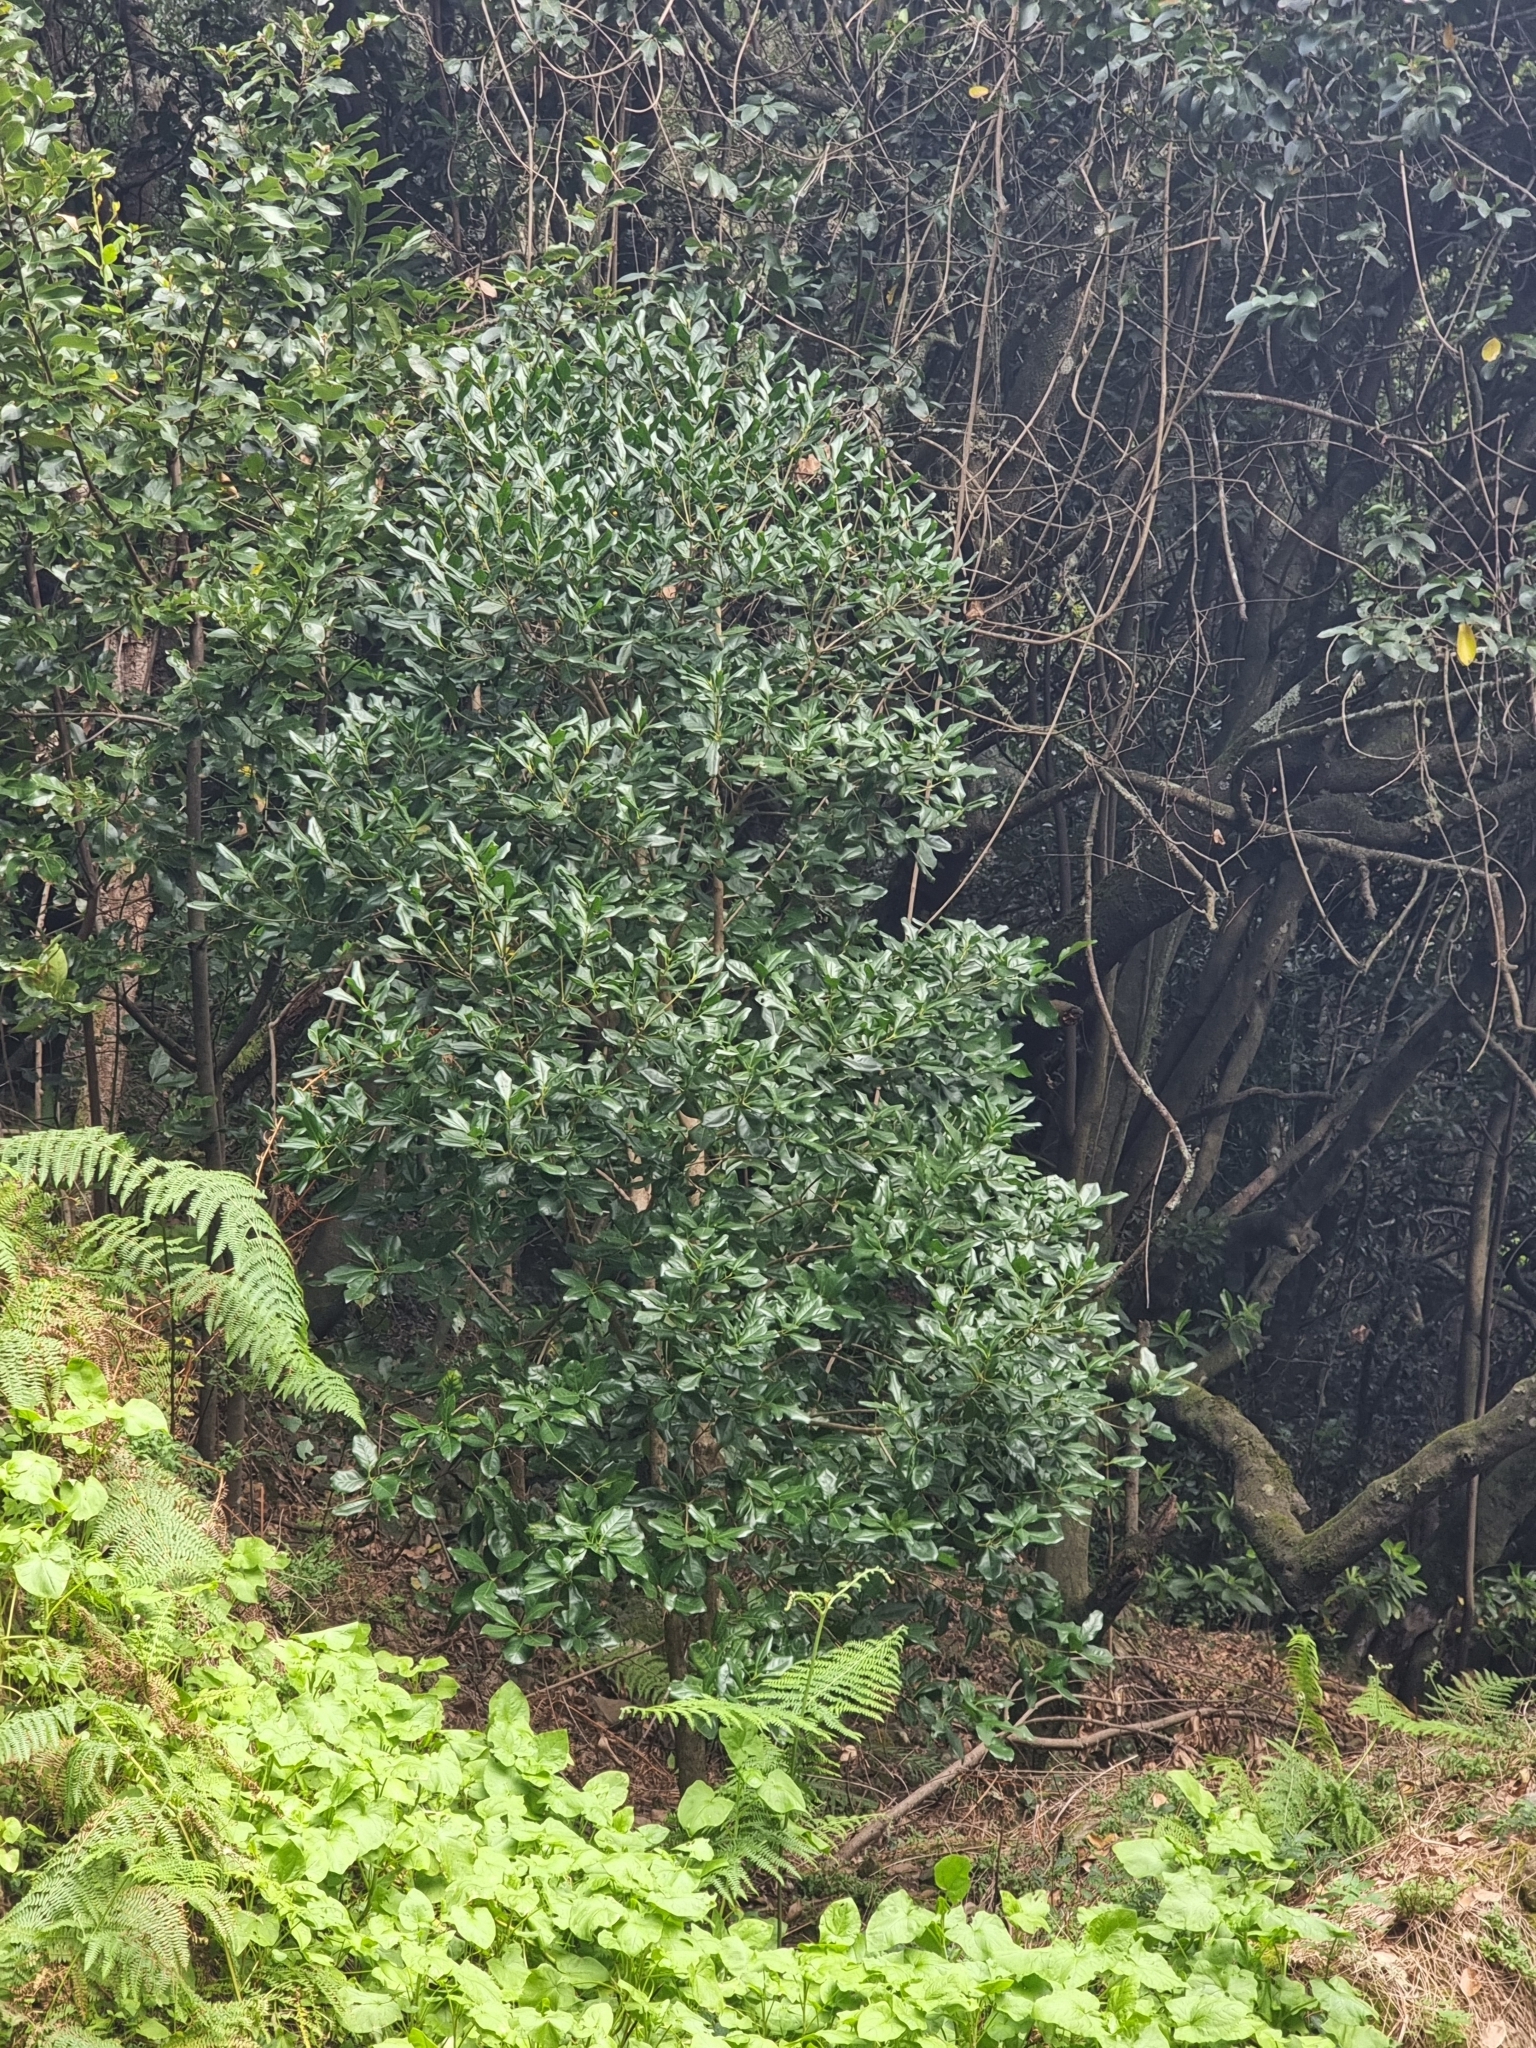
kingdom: Plantae
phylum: Tracheophyta
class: Magnoliopsida
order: Lamiales
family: Oleaceae
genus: Picconia
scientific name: Picconia excelsa
